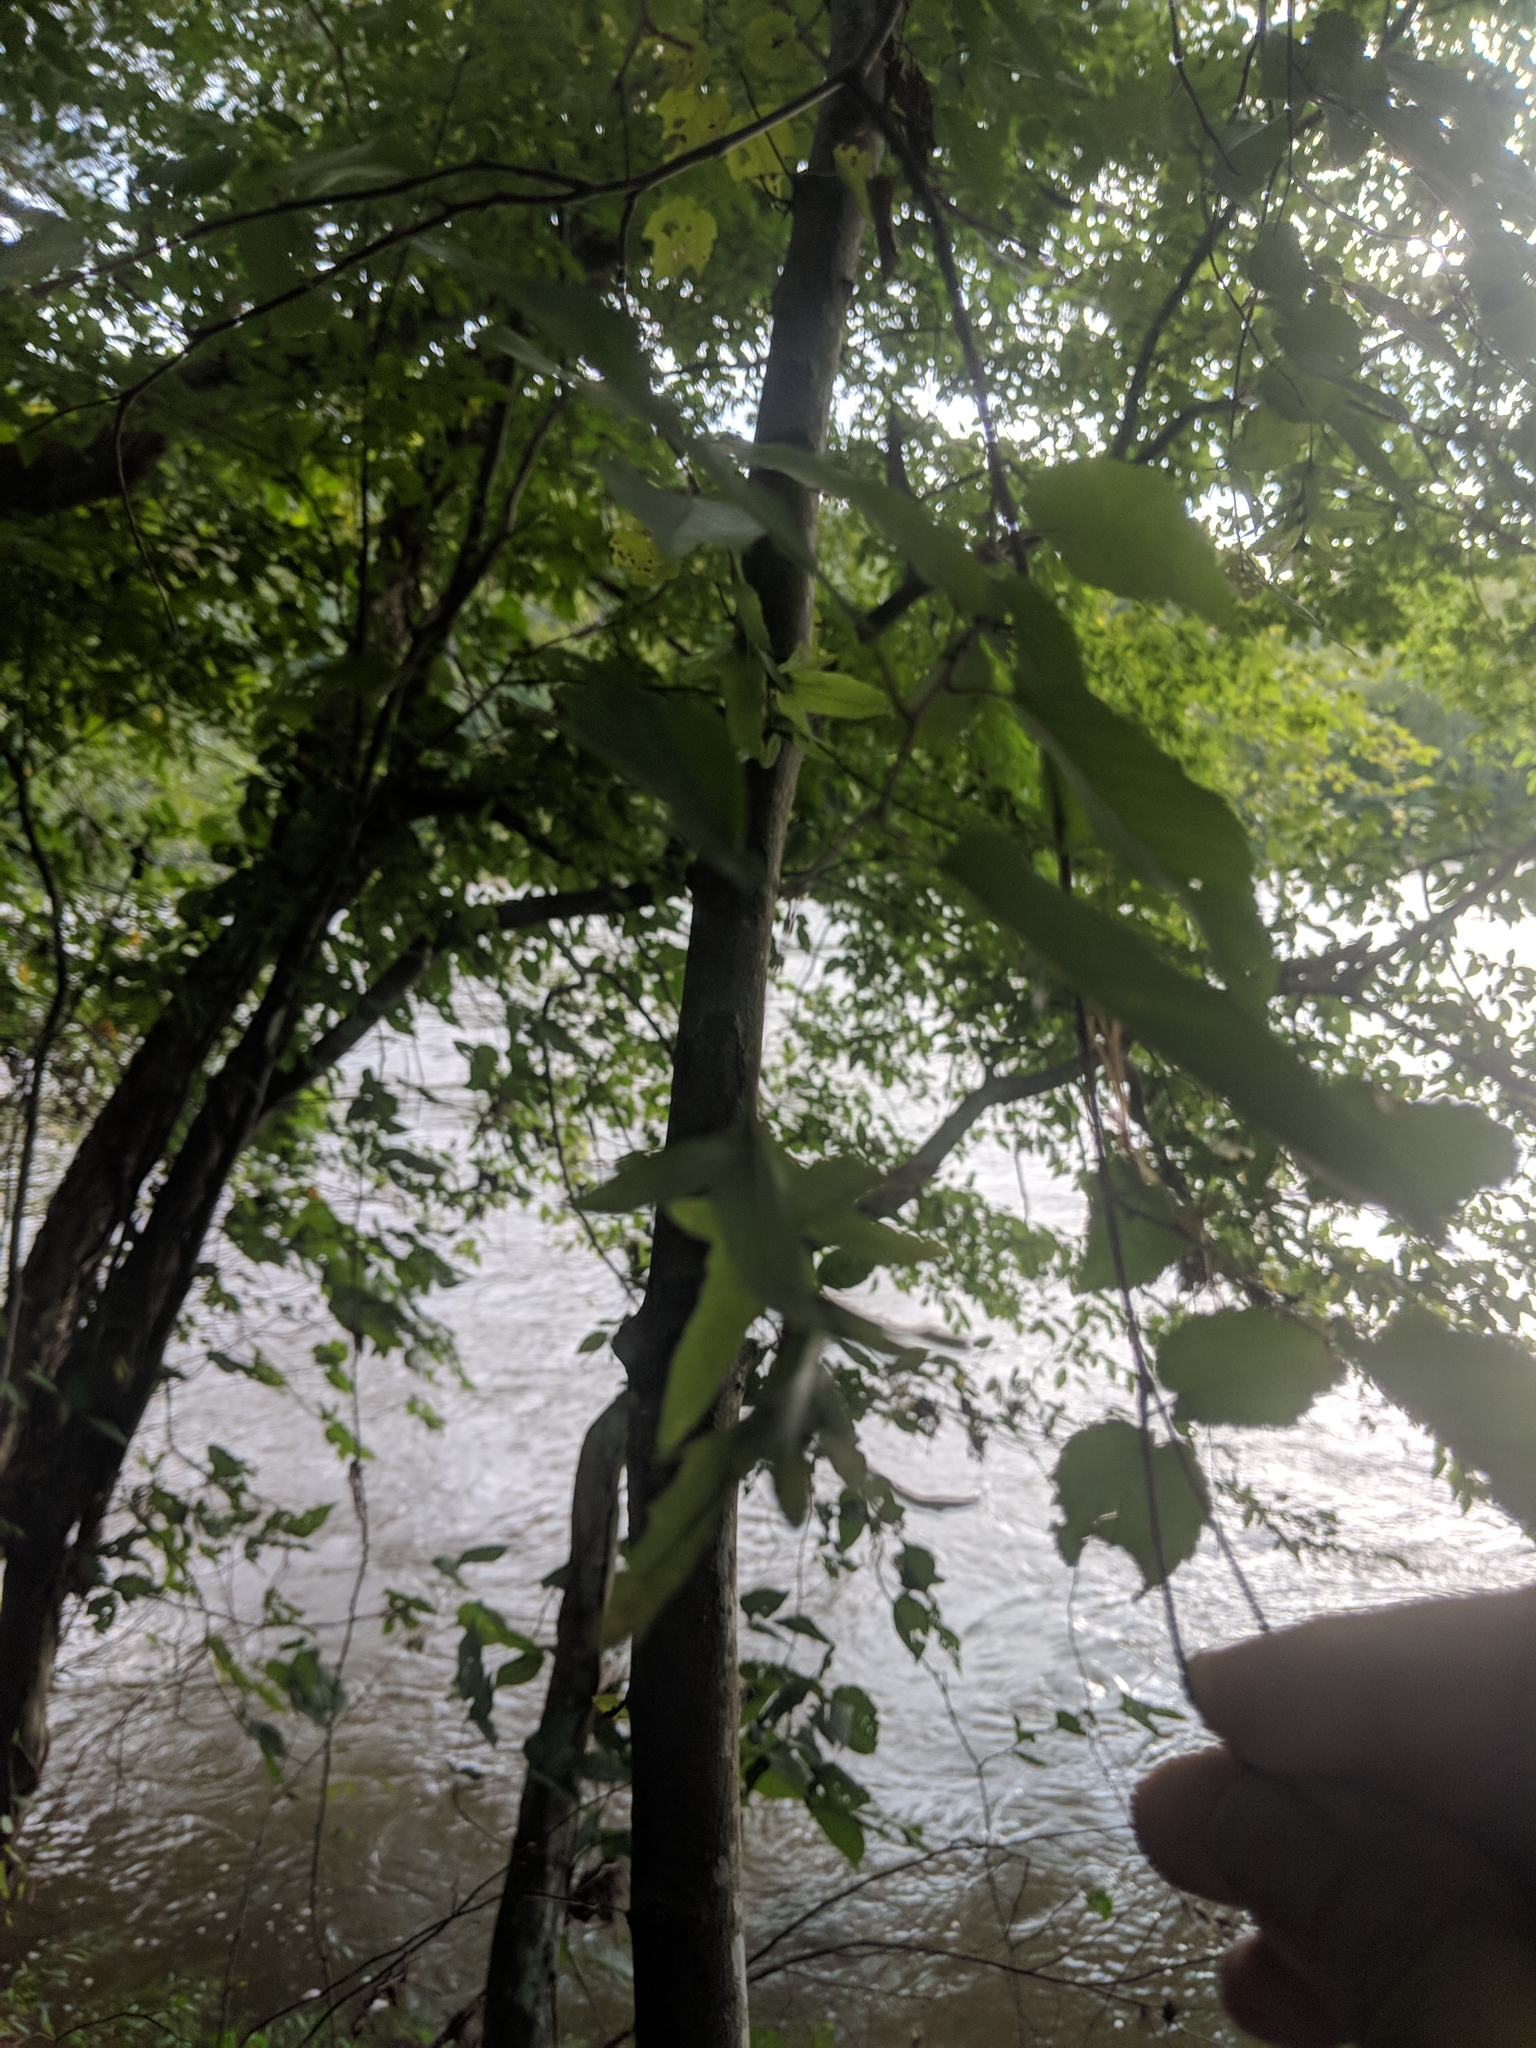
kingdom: Plantae
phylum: Tracheophyta
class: Magnoliopsida
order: Fagales
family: Betulaceae
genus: Carpinus
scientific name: Carpinus caroliniana
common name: American hornbeam
